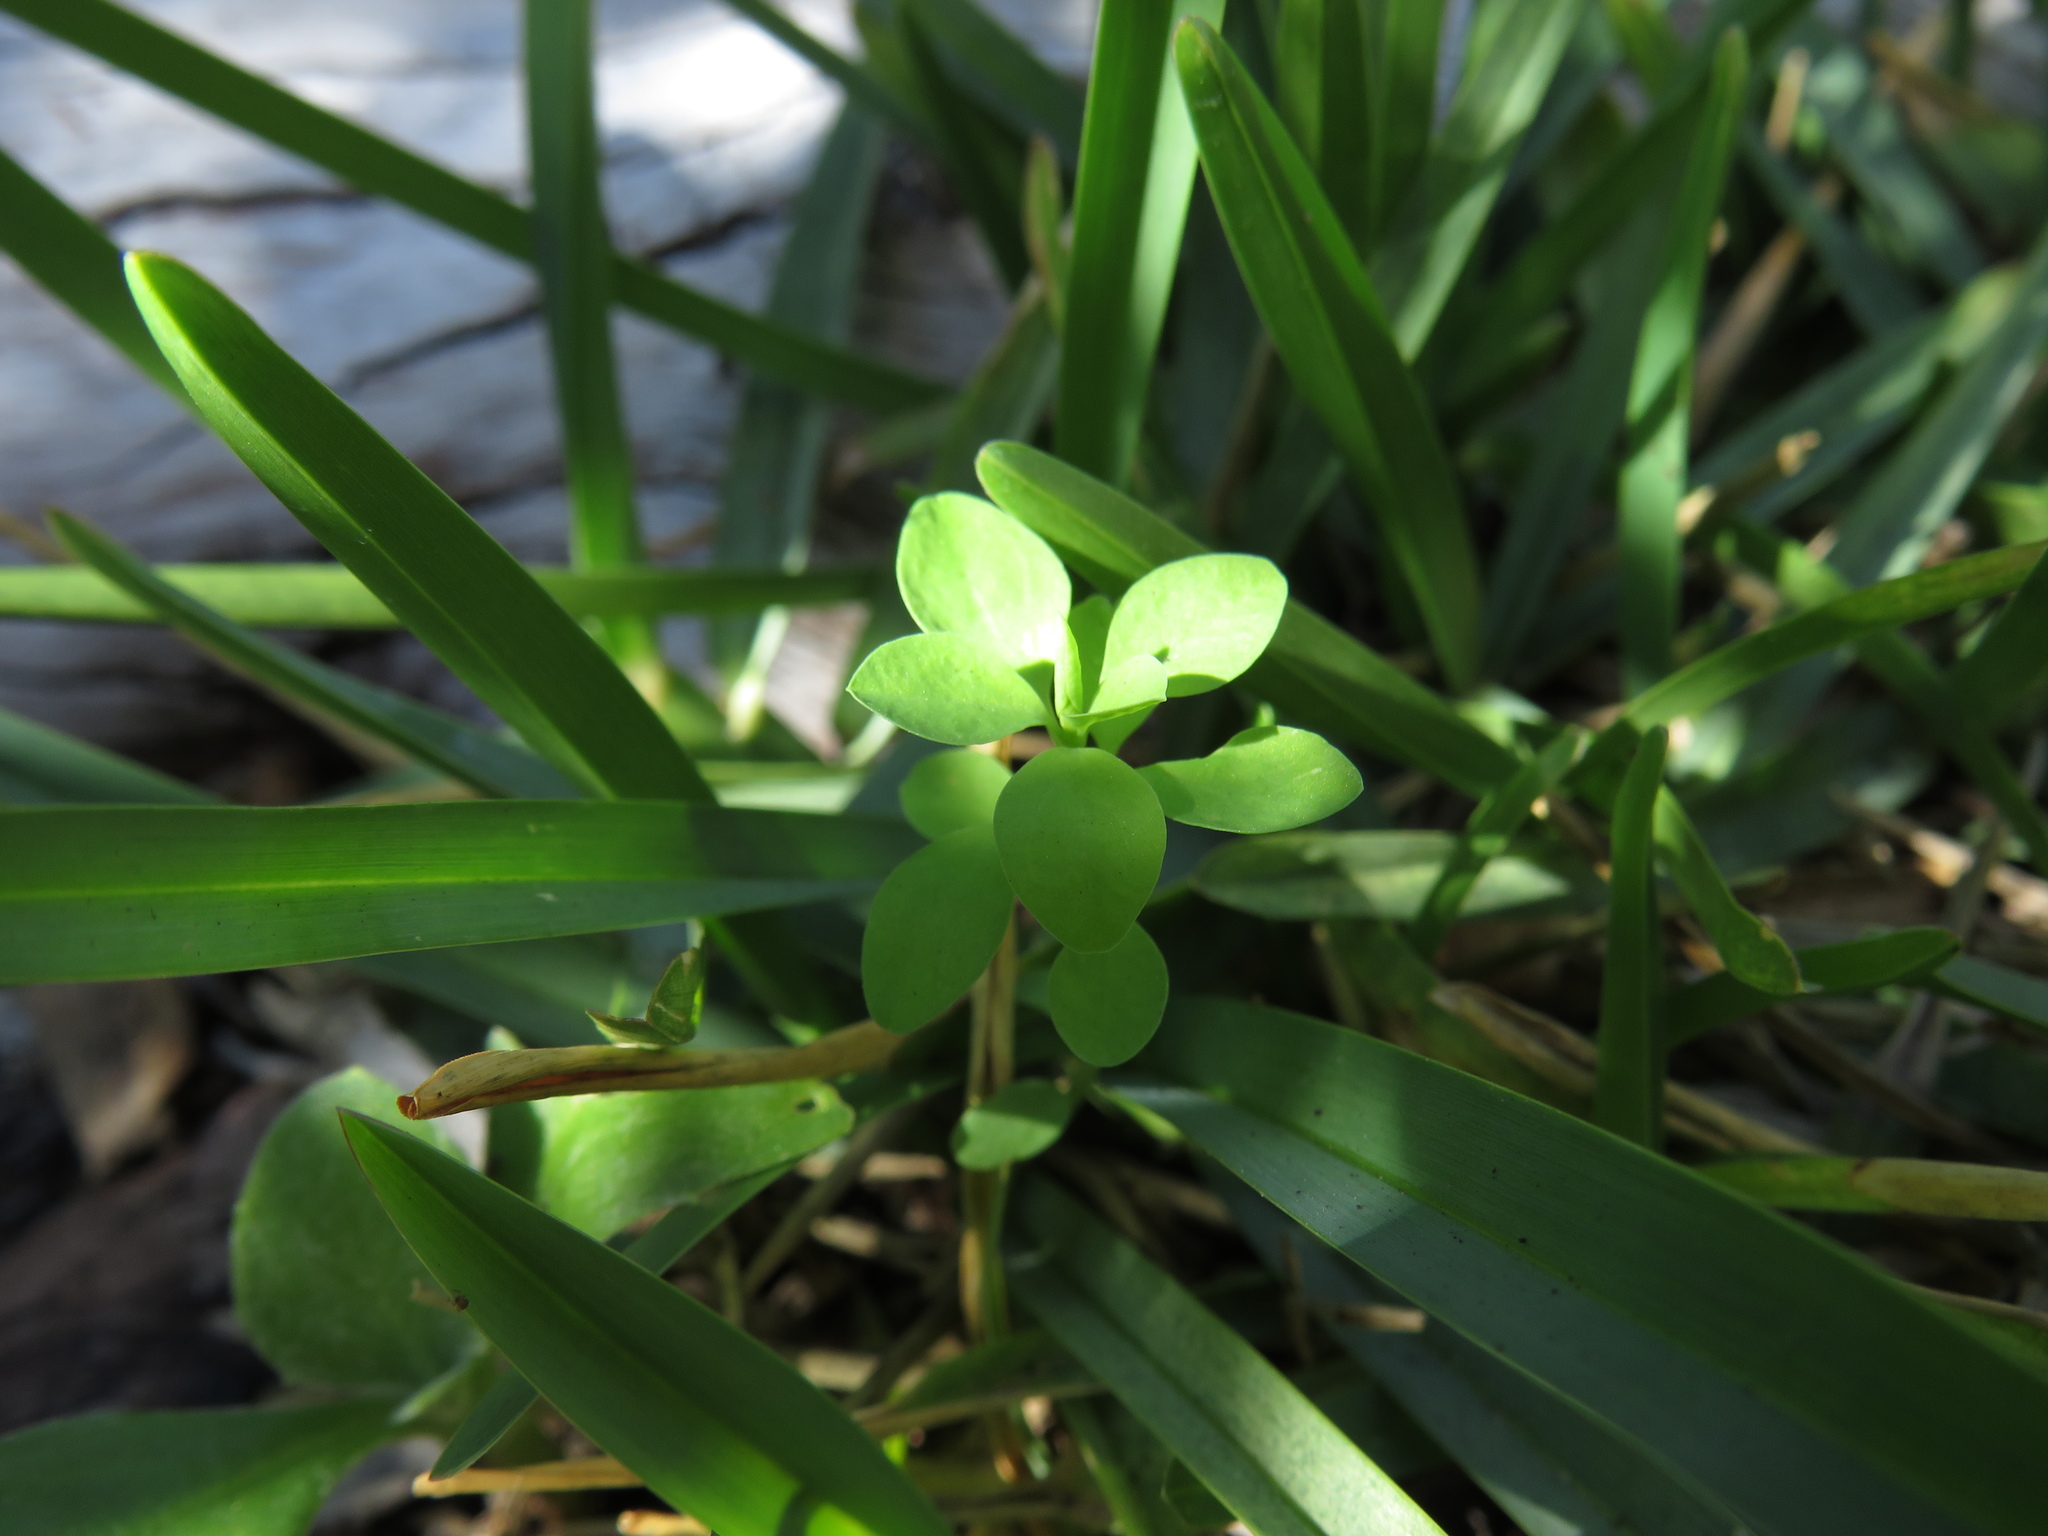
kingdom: Plantae
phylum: Tracheophyta
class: Magnoliopsida
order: Malpighiales
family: Euphorbiaceae
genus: Euphorbia
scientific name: Euphorbia peplus
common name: Petty spurge
